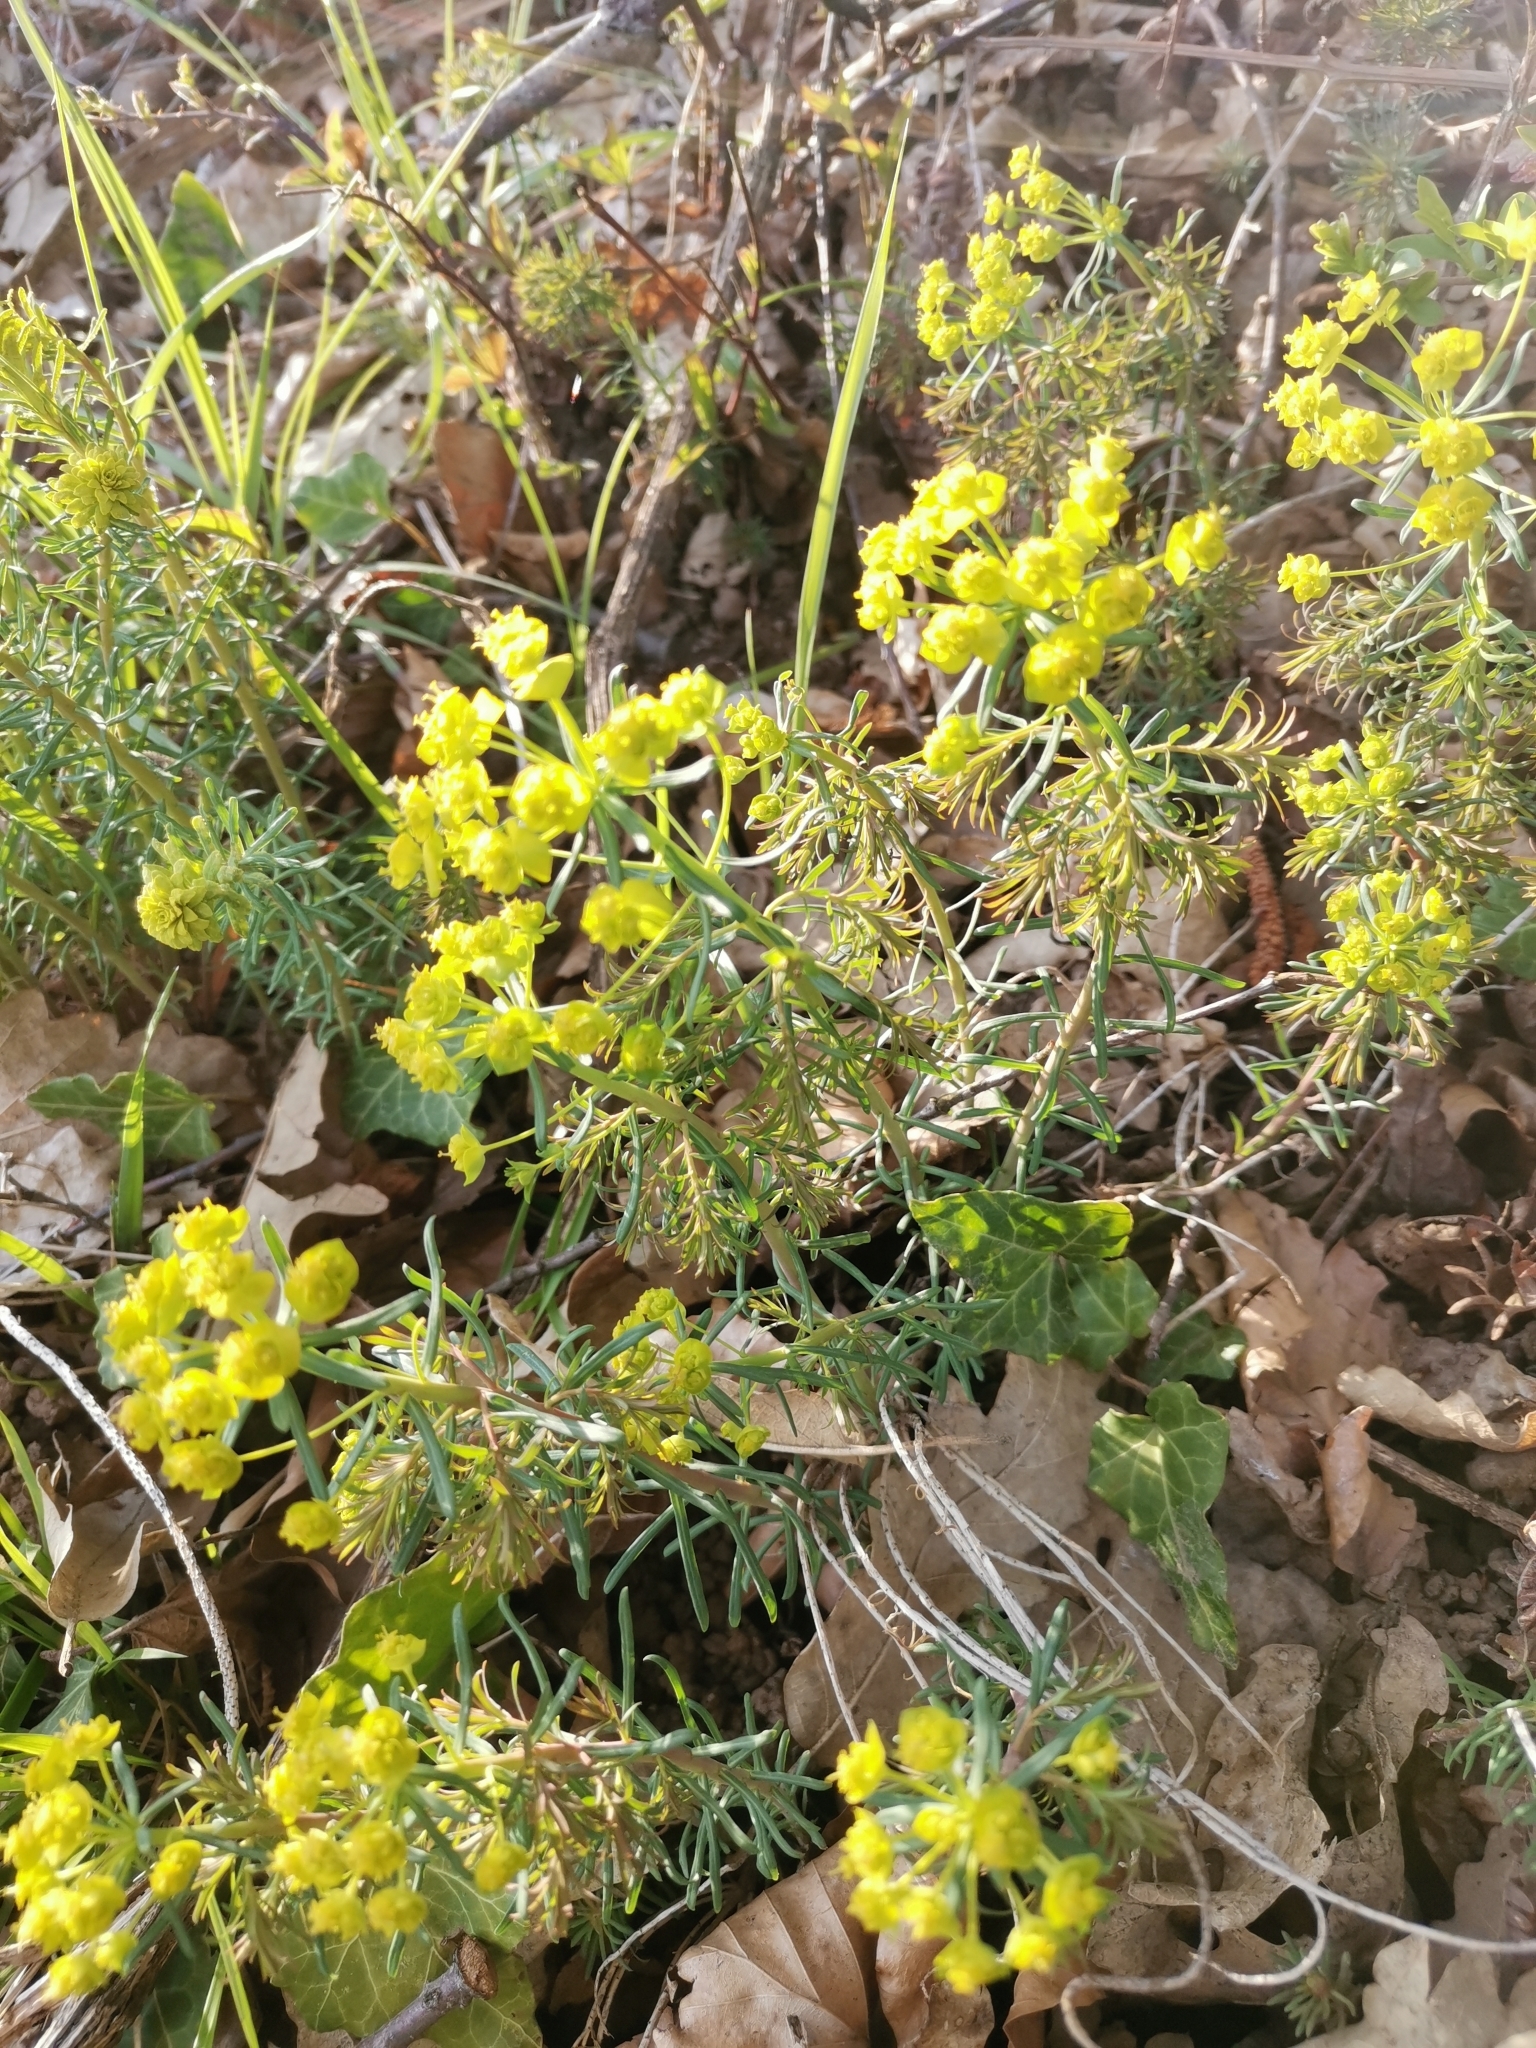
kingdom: Plantae
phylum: Tracheophyta
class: Magnoliopsida
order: Malpighiales
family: Euphorbiaceae
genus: Euphorbia
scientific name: Euphorbia cyparissias
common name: Cypress spurge
